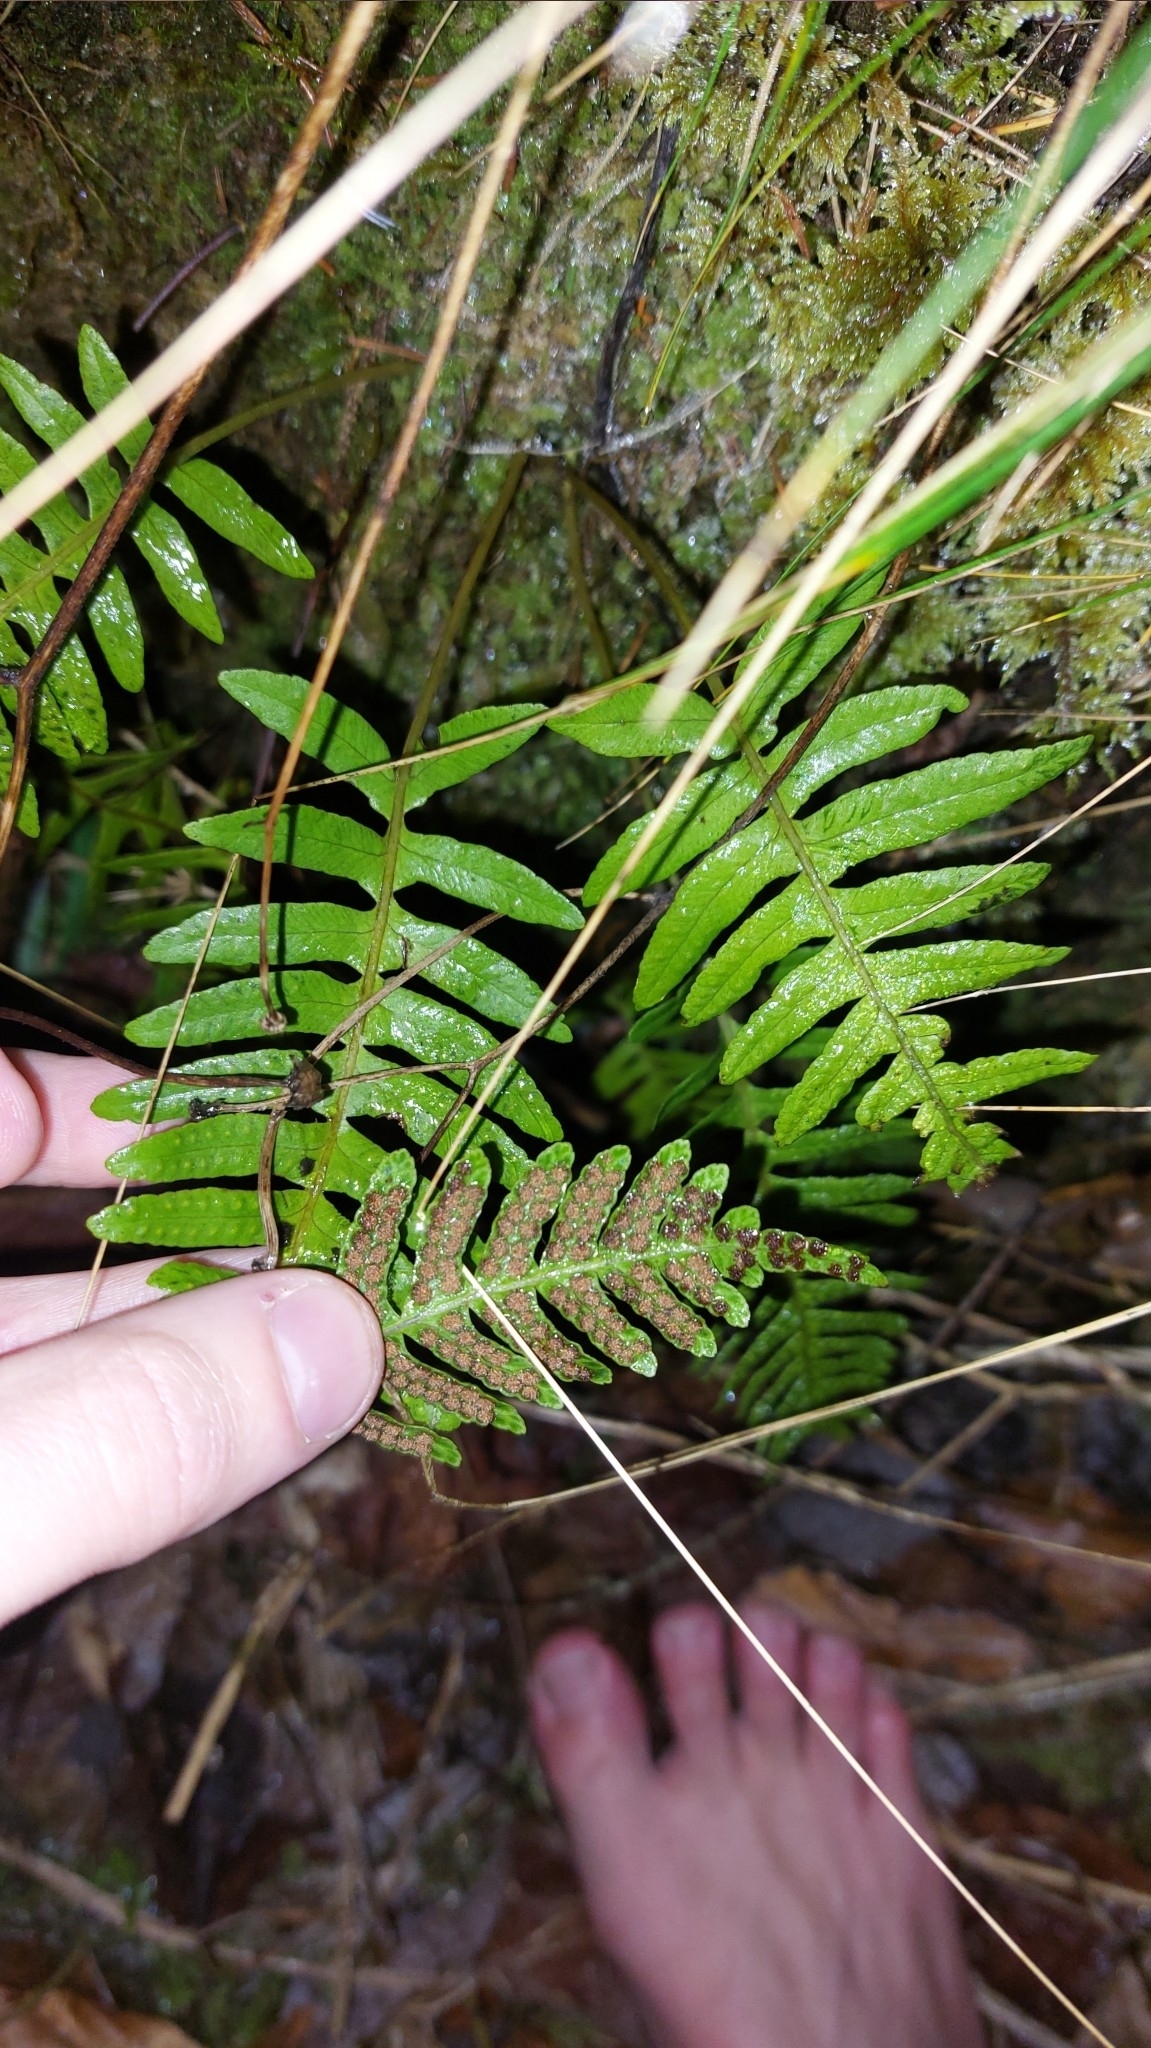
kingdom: Plantae
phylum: Tracheophyta
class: Polypodiopsida
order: Polypodiales
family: Polypodiaceae
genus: Polypodium
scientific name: Polypodium vulgare
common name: Common polypody
